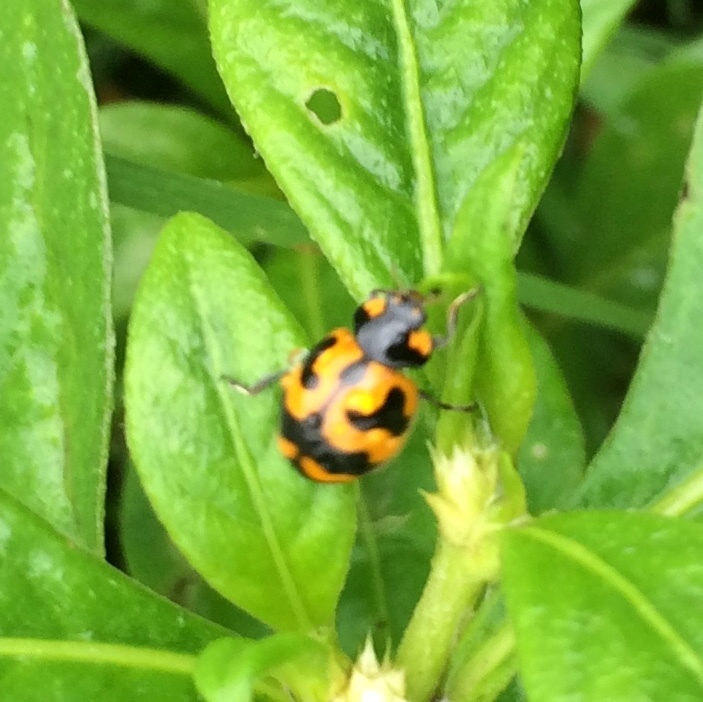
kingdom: Animalia
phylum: Arthropoda
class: Insecta
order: Coleoptera
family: Coccinellidae
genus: Coccinella
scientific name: Coccinella transversalis
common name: Transverse lady beetle
